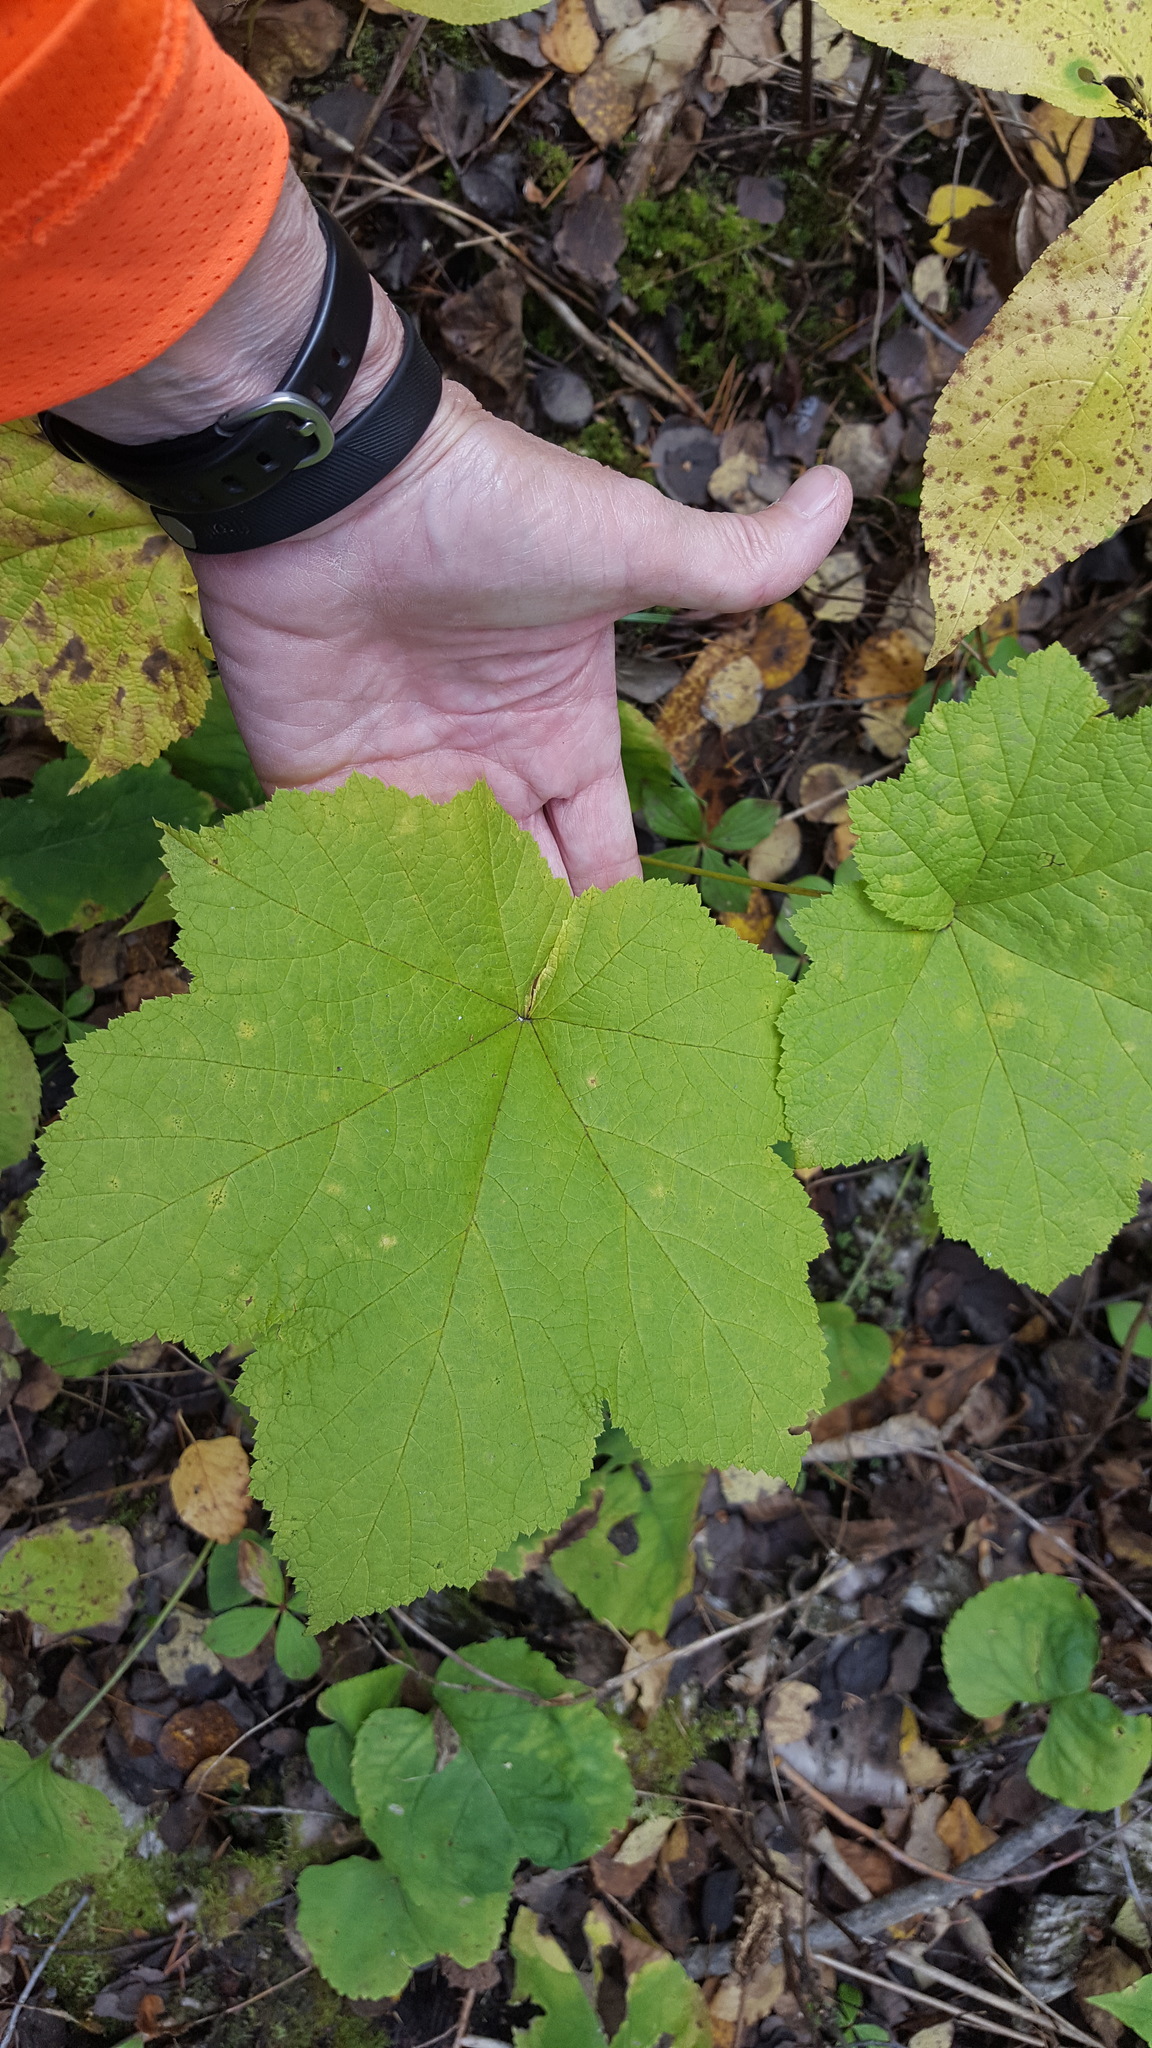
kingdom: Plantae
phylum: Tracheophyta
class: Magnoliopsida
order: Rosales
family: Rosaceae
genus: Rubus
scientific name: Rubus parviflorus
